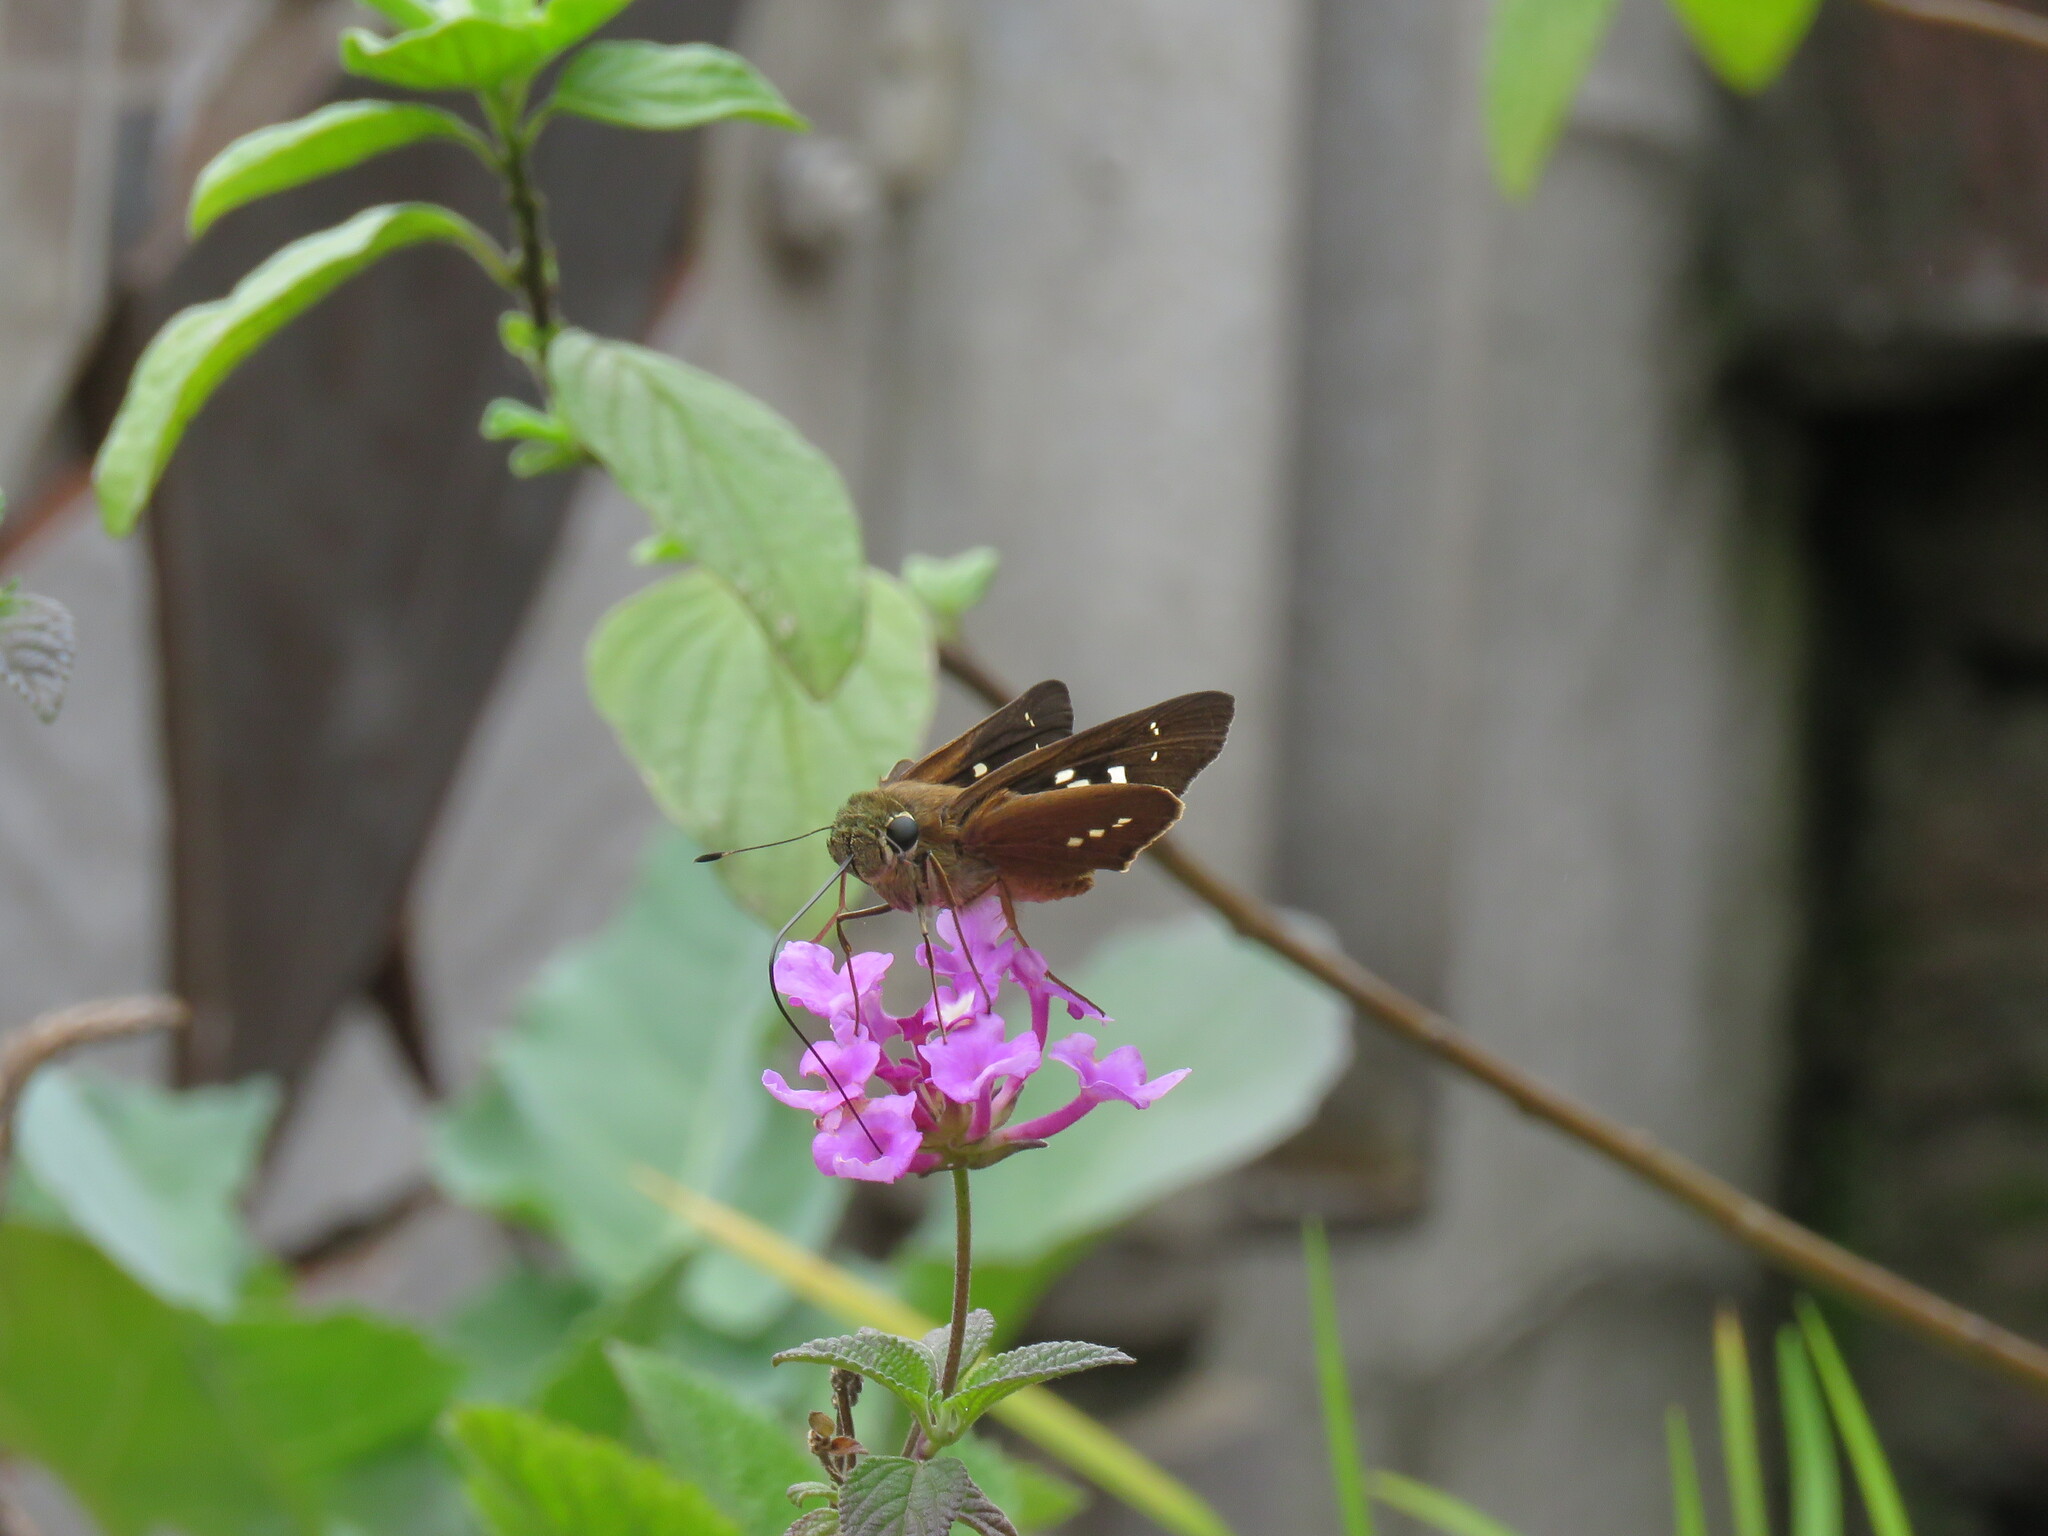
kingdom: Animalia
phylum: Arthropoda
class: Insecta
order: Lepidoptera
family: Hesperiidae
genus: Calpodes
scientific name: Calpodes ethlius
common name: Brazilian skipper
